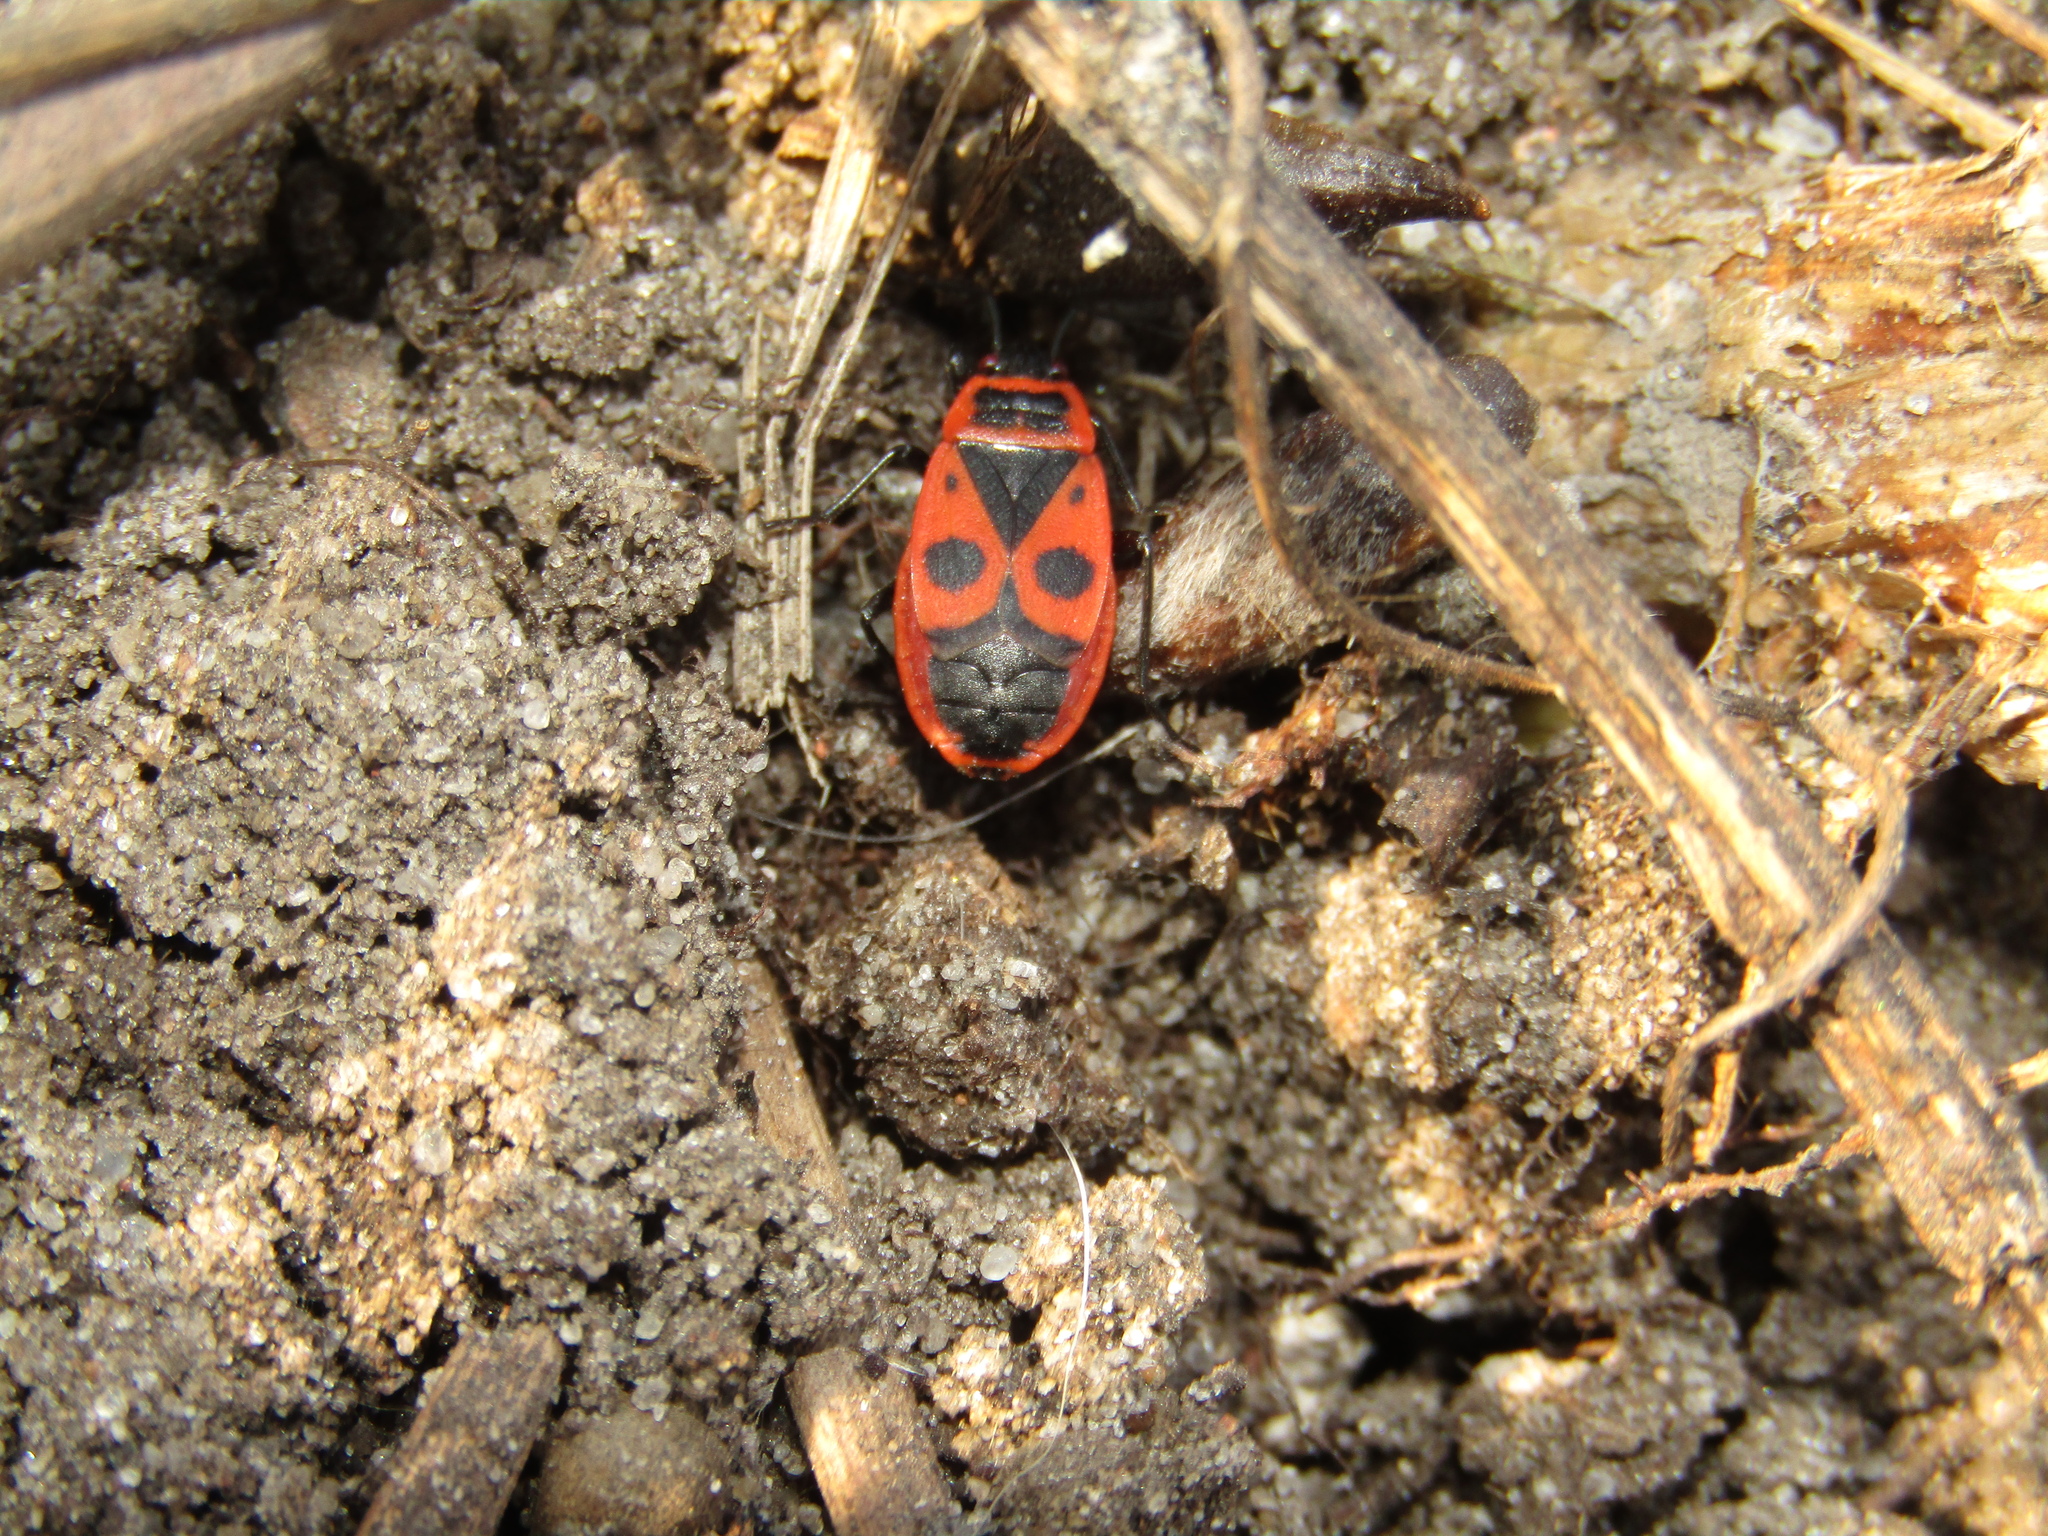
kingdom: Animalia
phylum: Arthropoda
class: Insecta
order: Hemiptera
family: Pyrrhocoridae
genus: Pyrrhocoris
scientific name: Pyrrhocoris apterus
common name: Firebug
